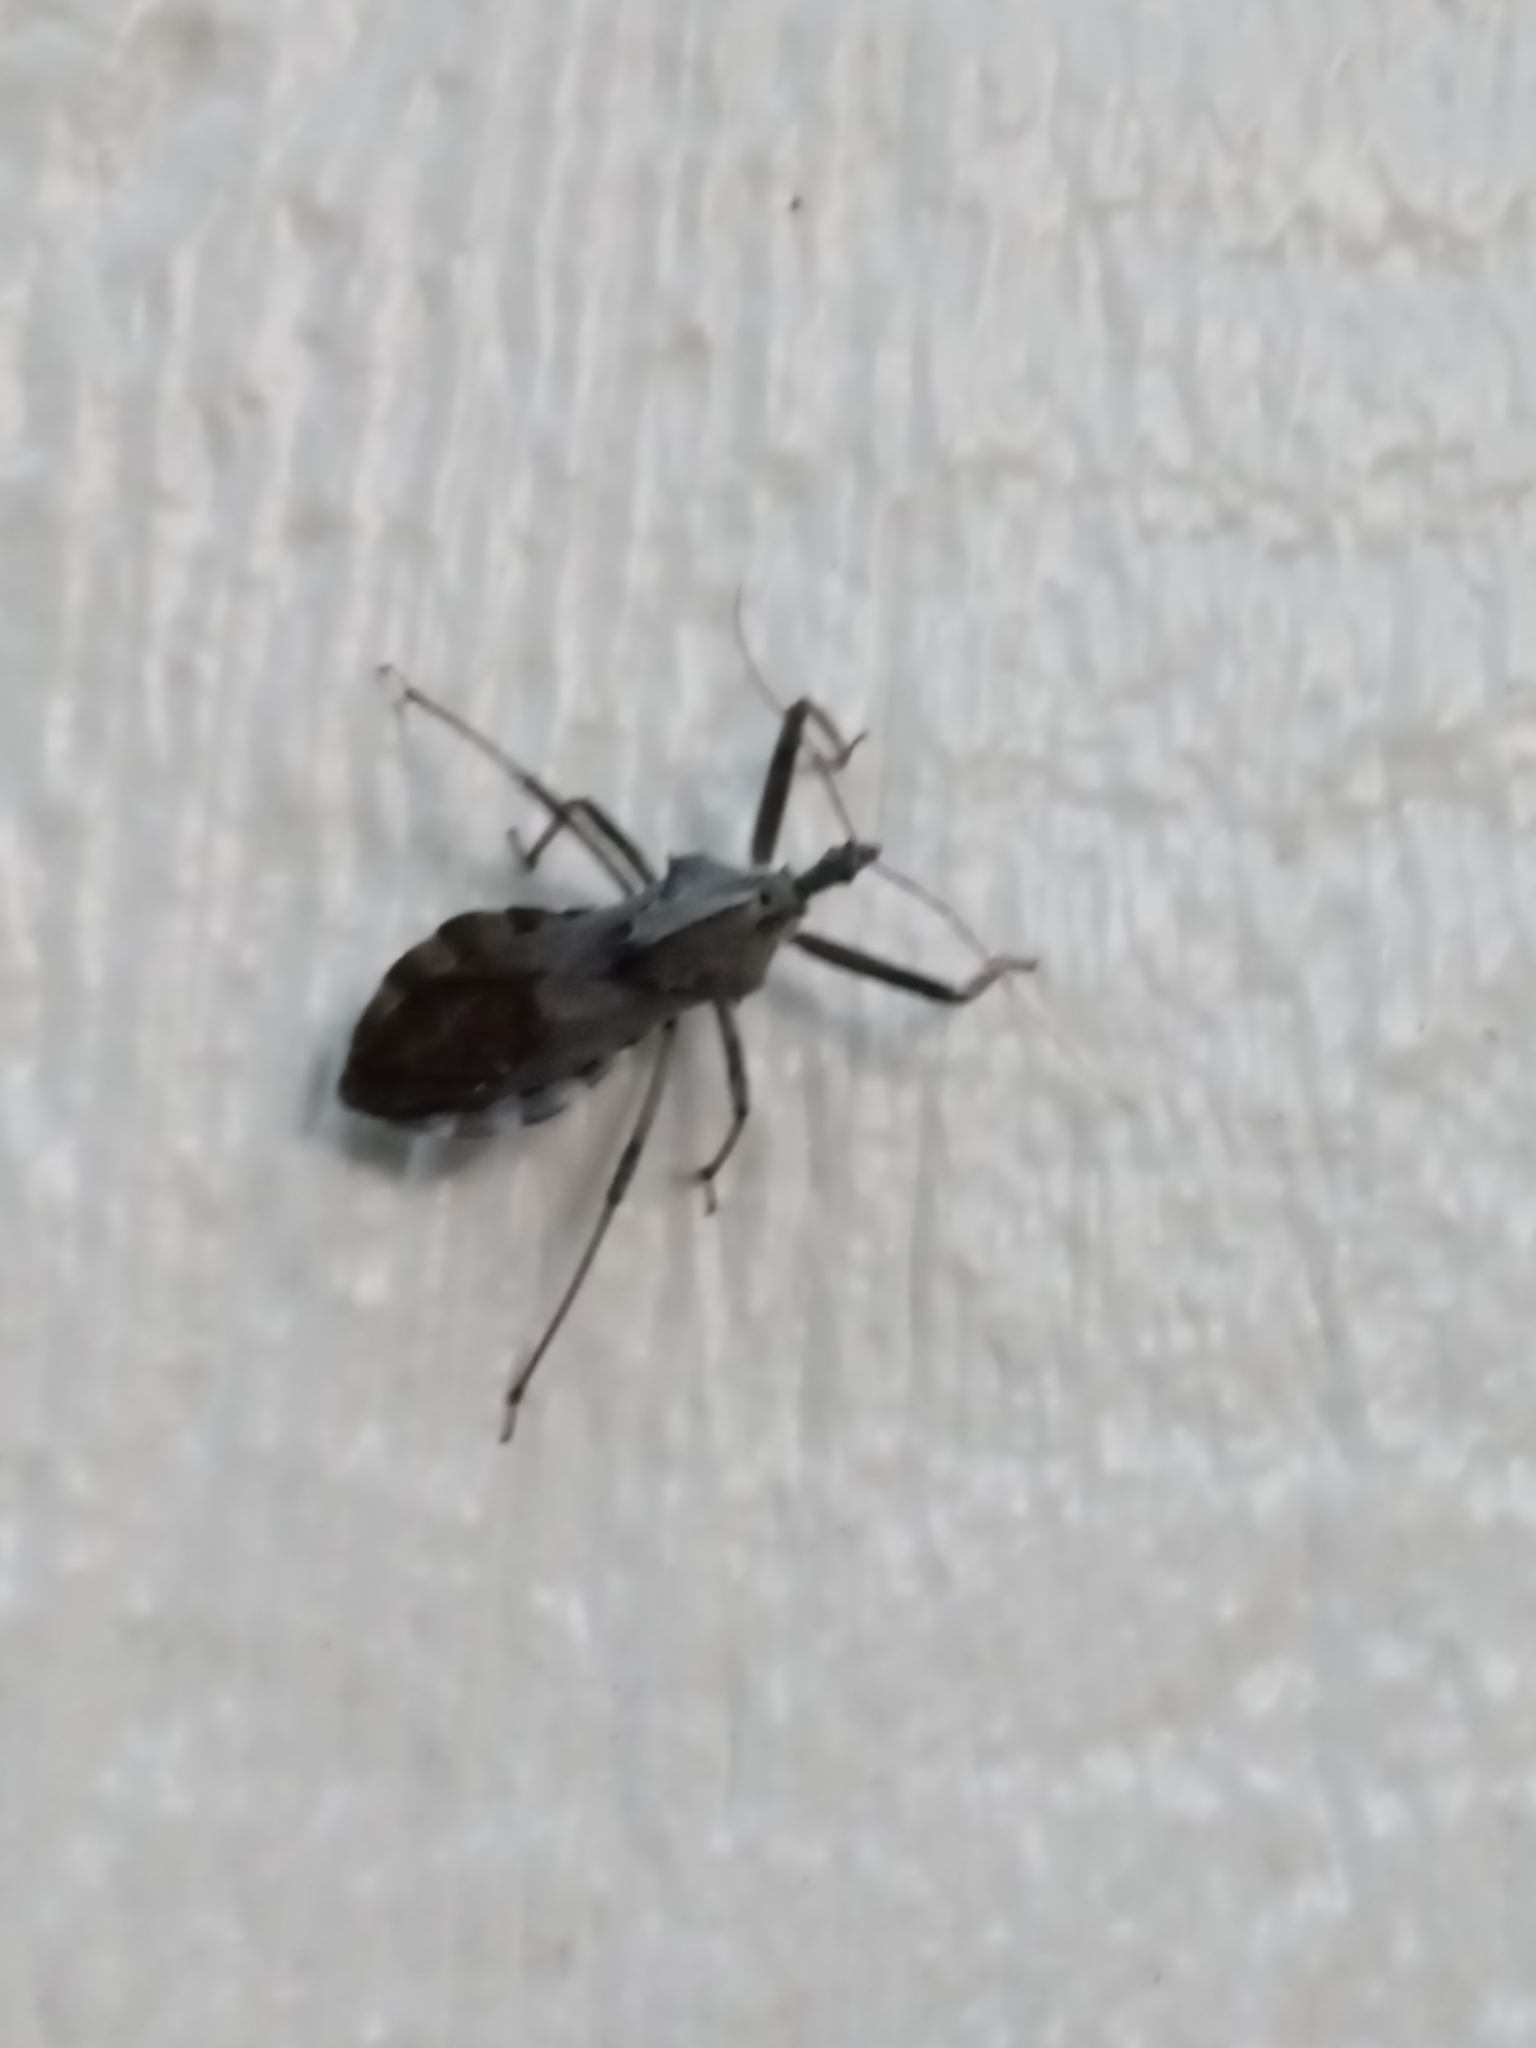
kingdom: Animalia
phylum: Arthropoda
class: Insecta
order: Hemiptera
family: Reduviidae
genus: Arilus
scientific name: Arilus cristatus
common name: North american wheel bug
